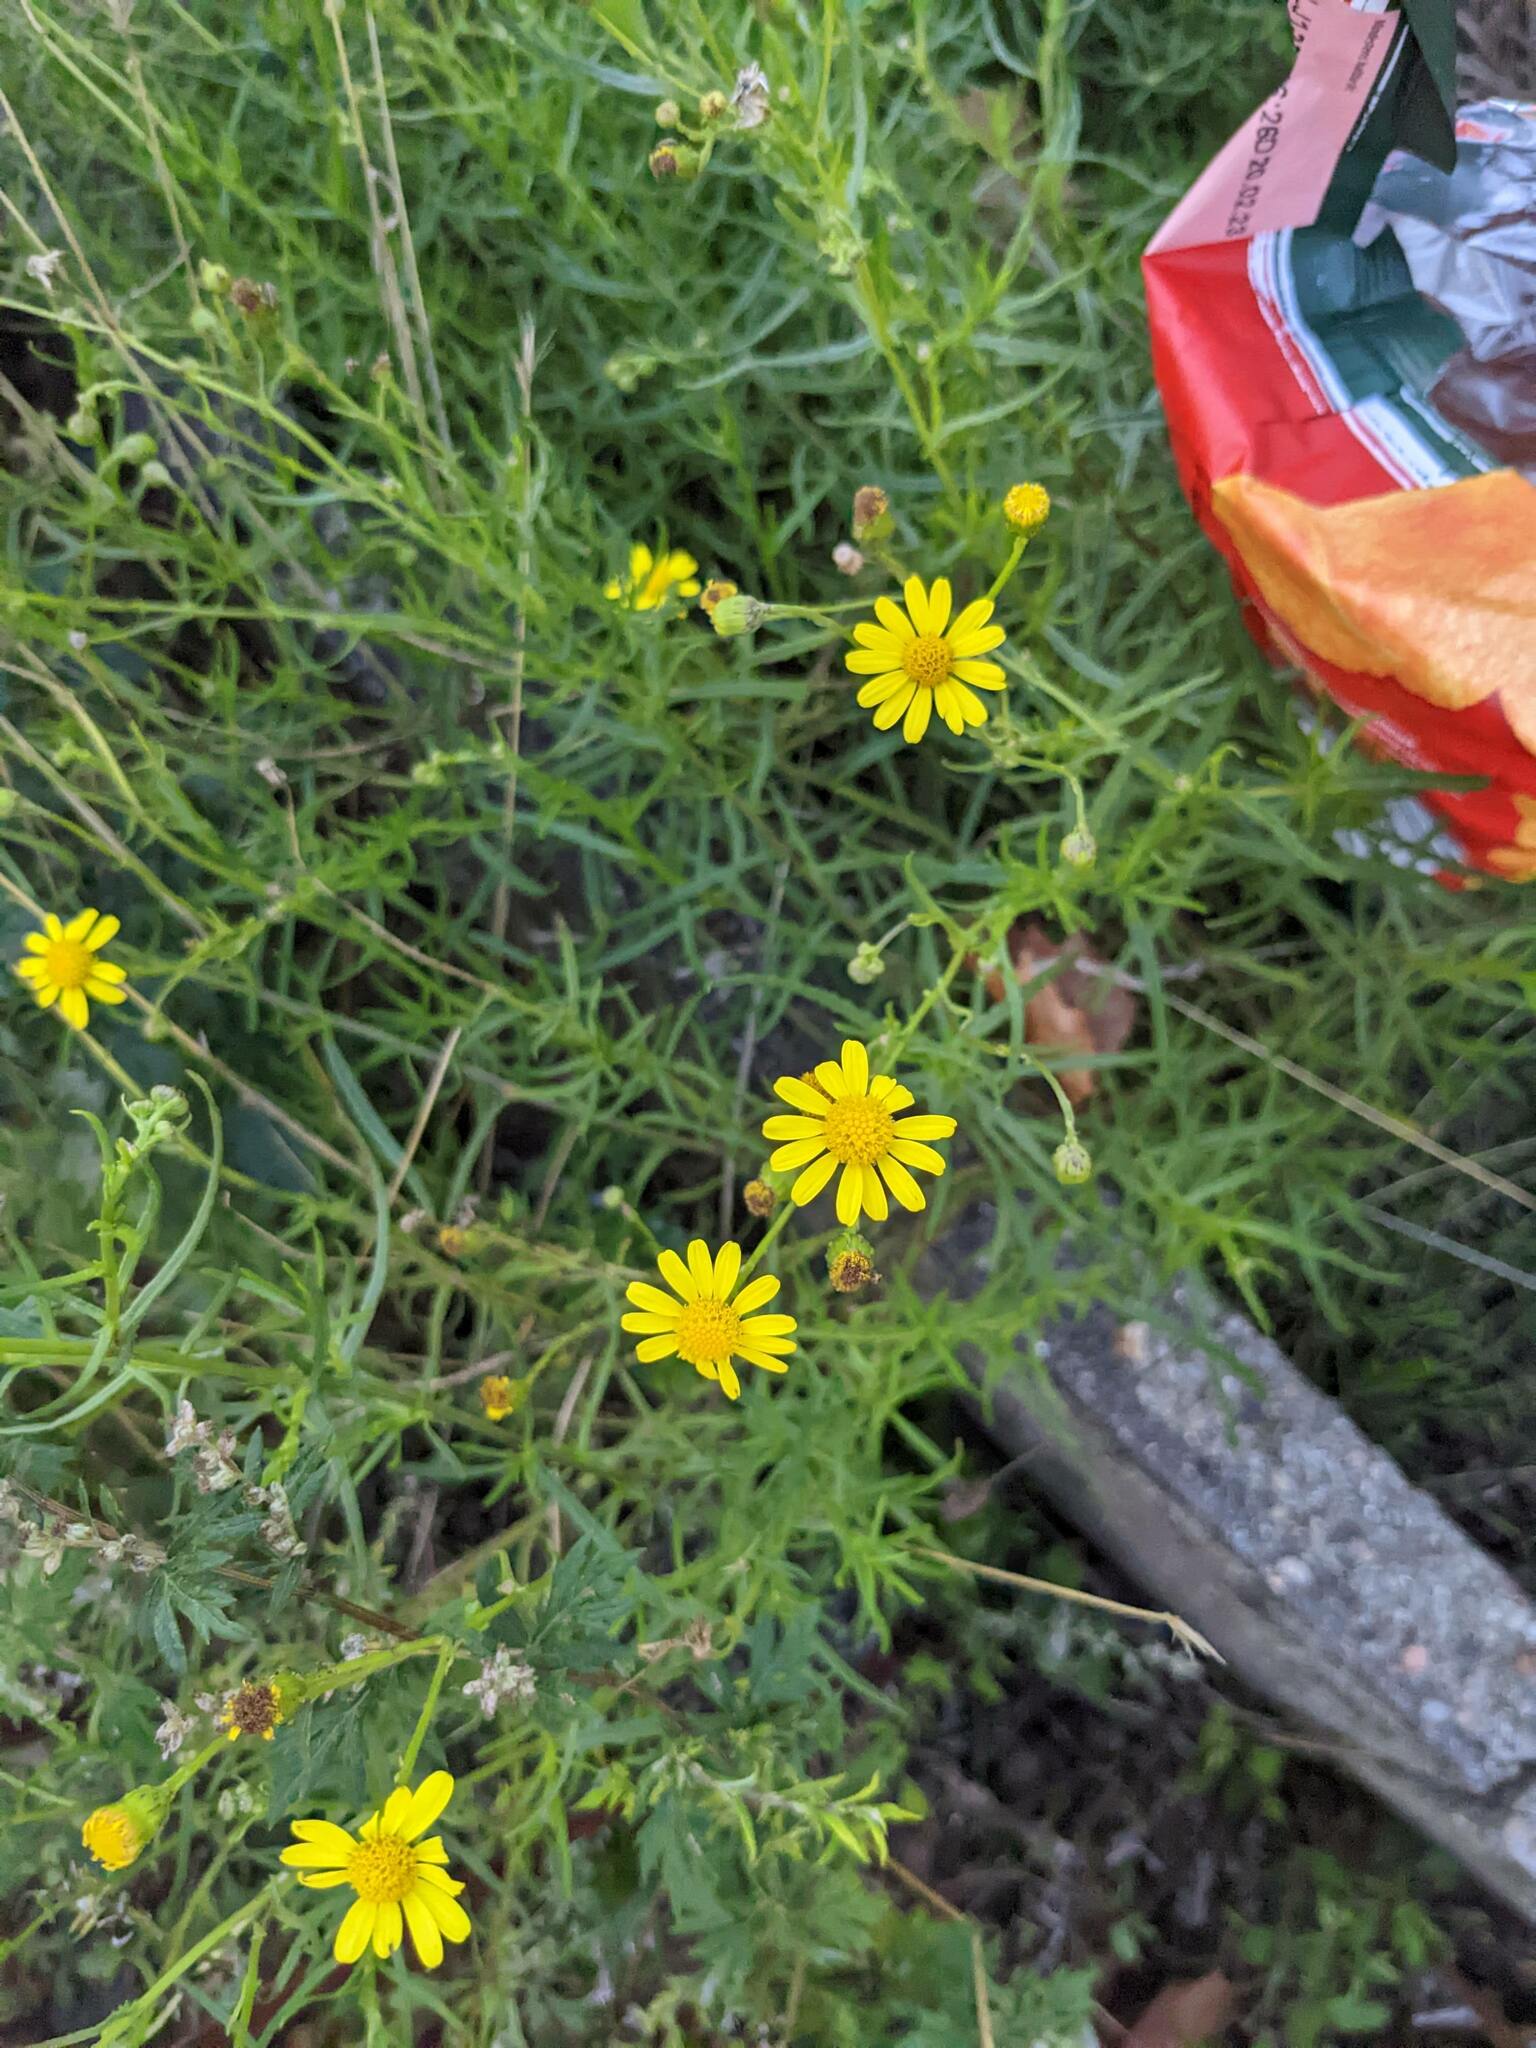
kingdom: Plantae
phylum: Tracheophyta
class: Magnoliopsida
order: Asterales
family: Asteraceae
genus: Senecio
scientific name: Senecio inaequidens
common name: Narrow-leaved ragwort
